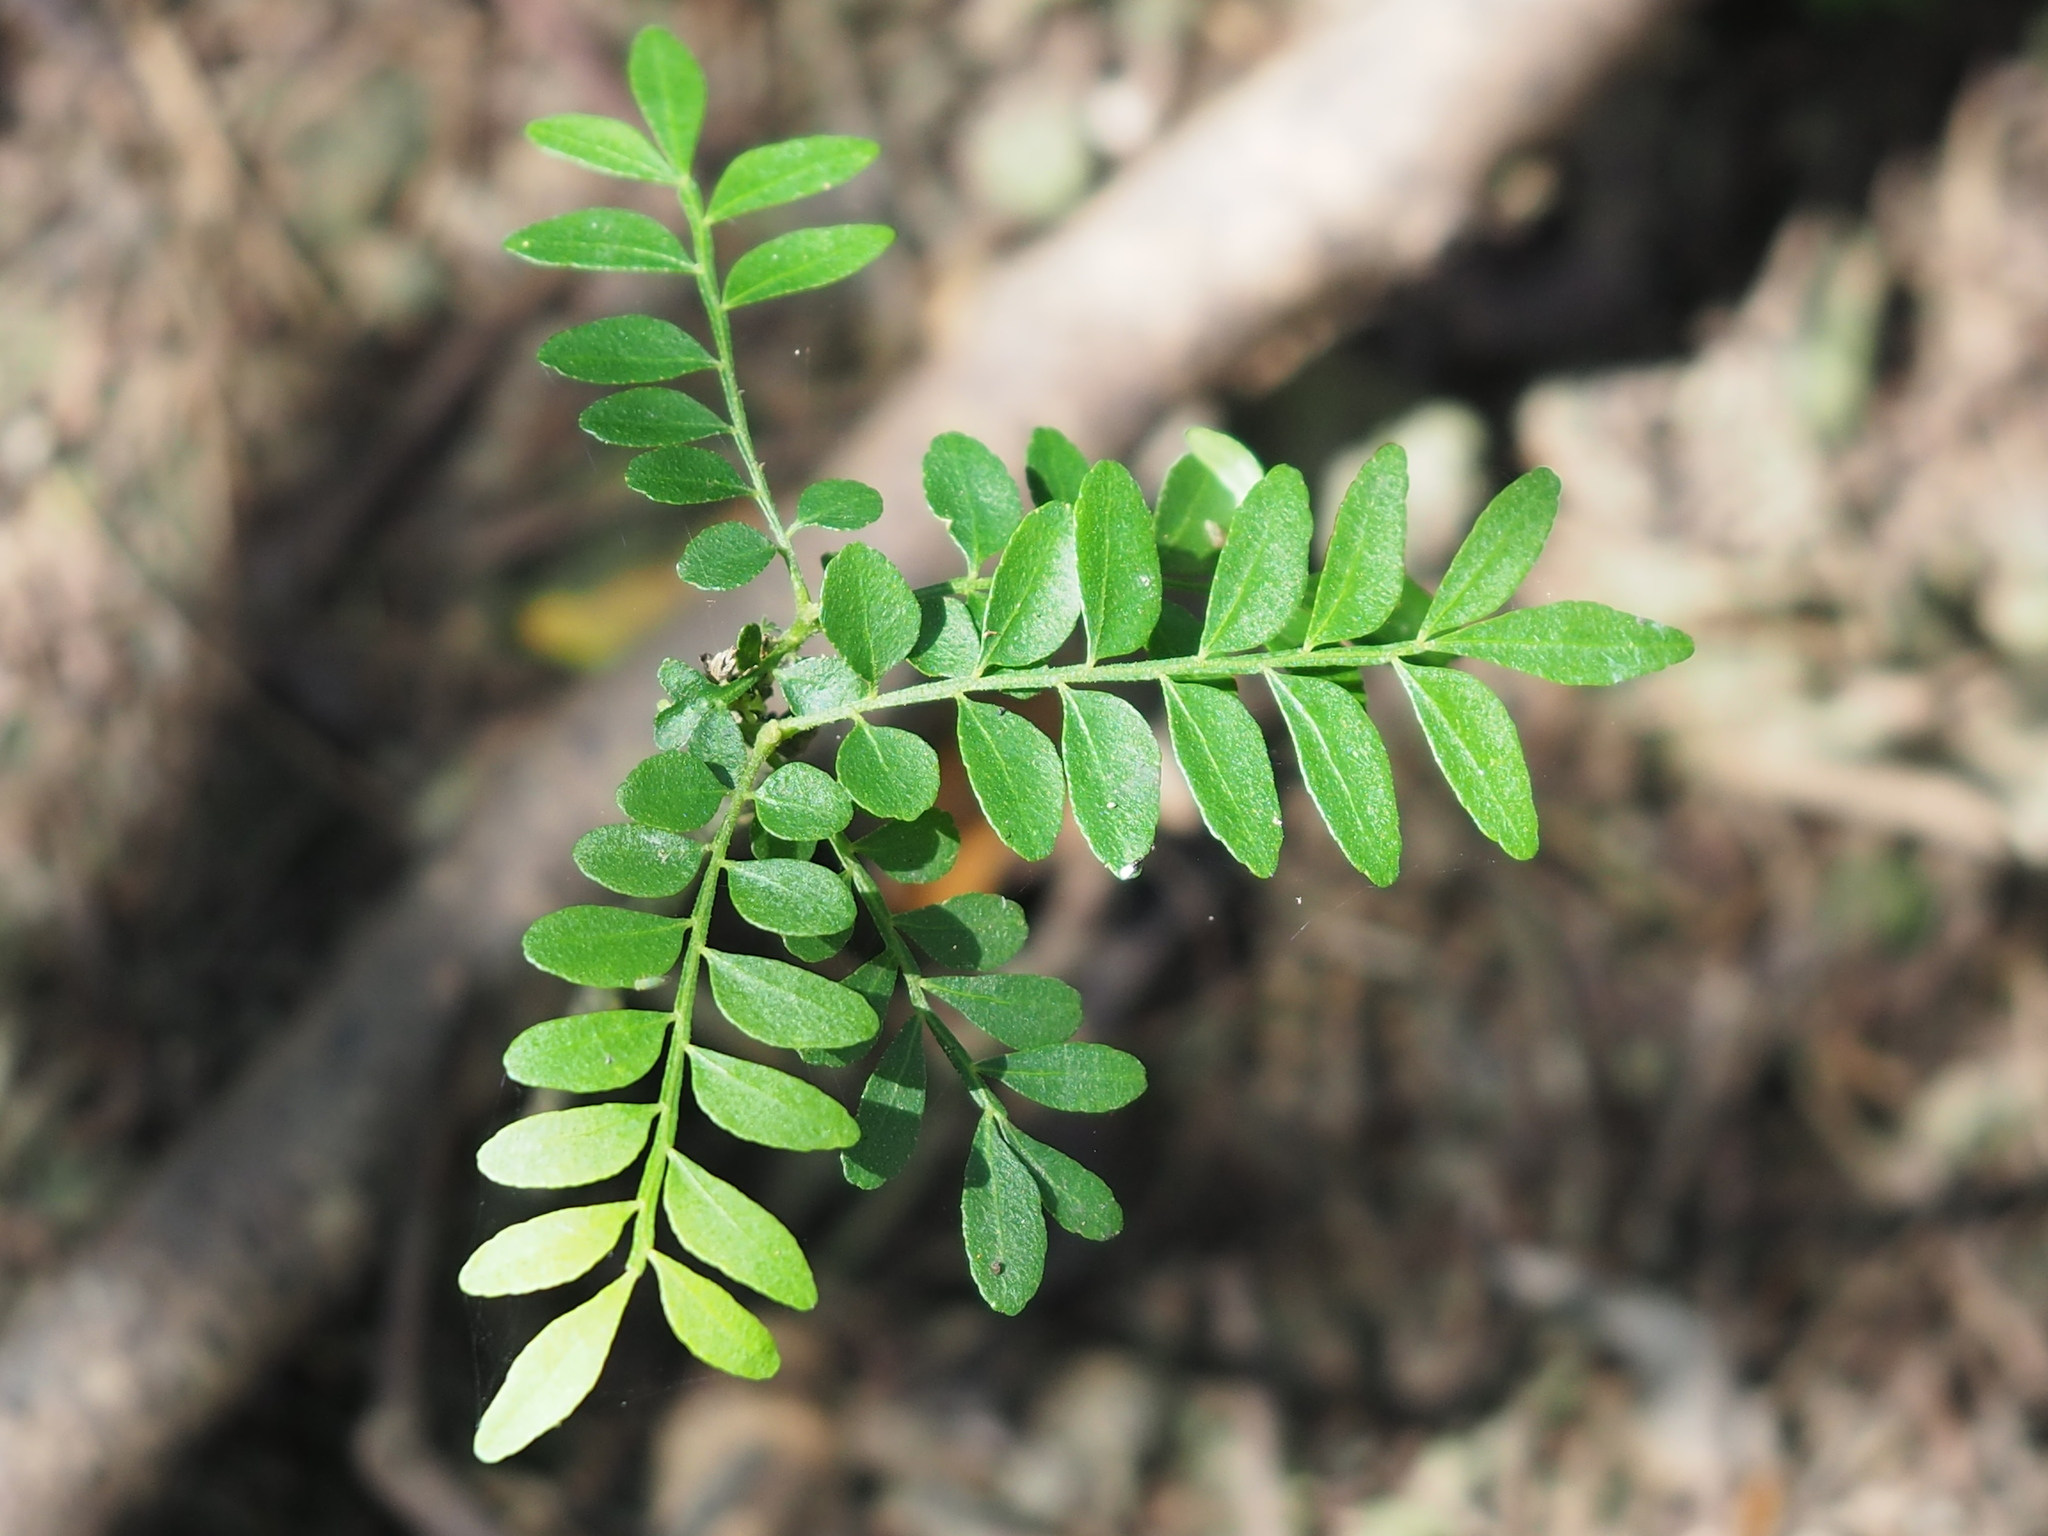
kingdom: Plantae
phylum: Tracheophyta
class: Magnoliopsida
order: Sapindales
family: Rutaceae
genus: Clausena
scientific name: Clausena excavata
